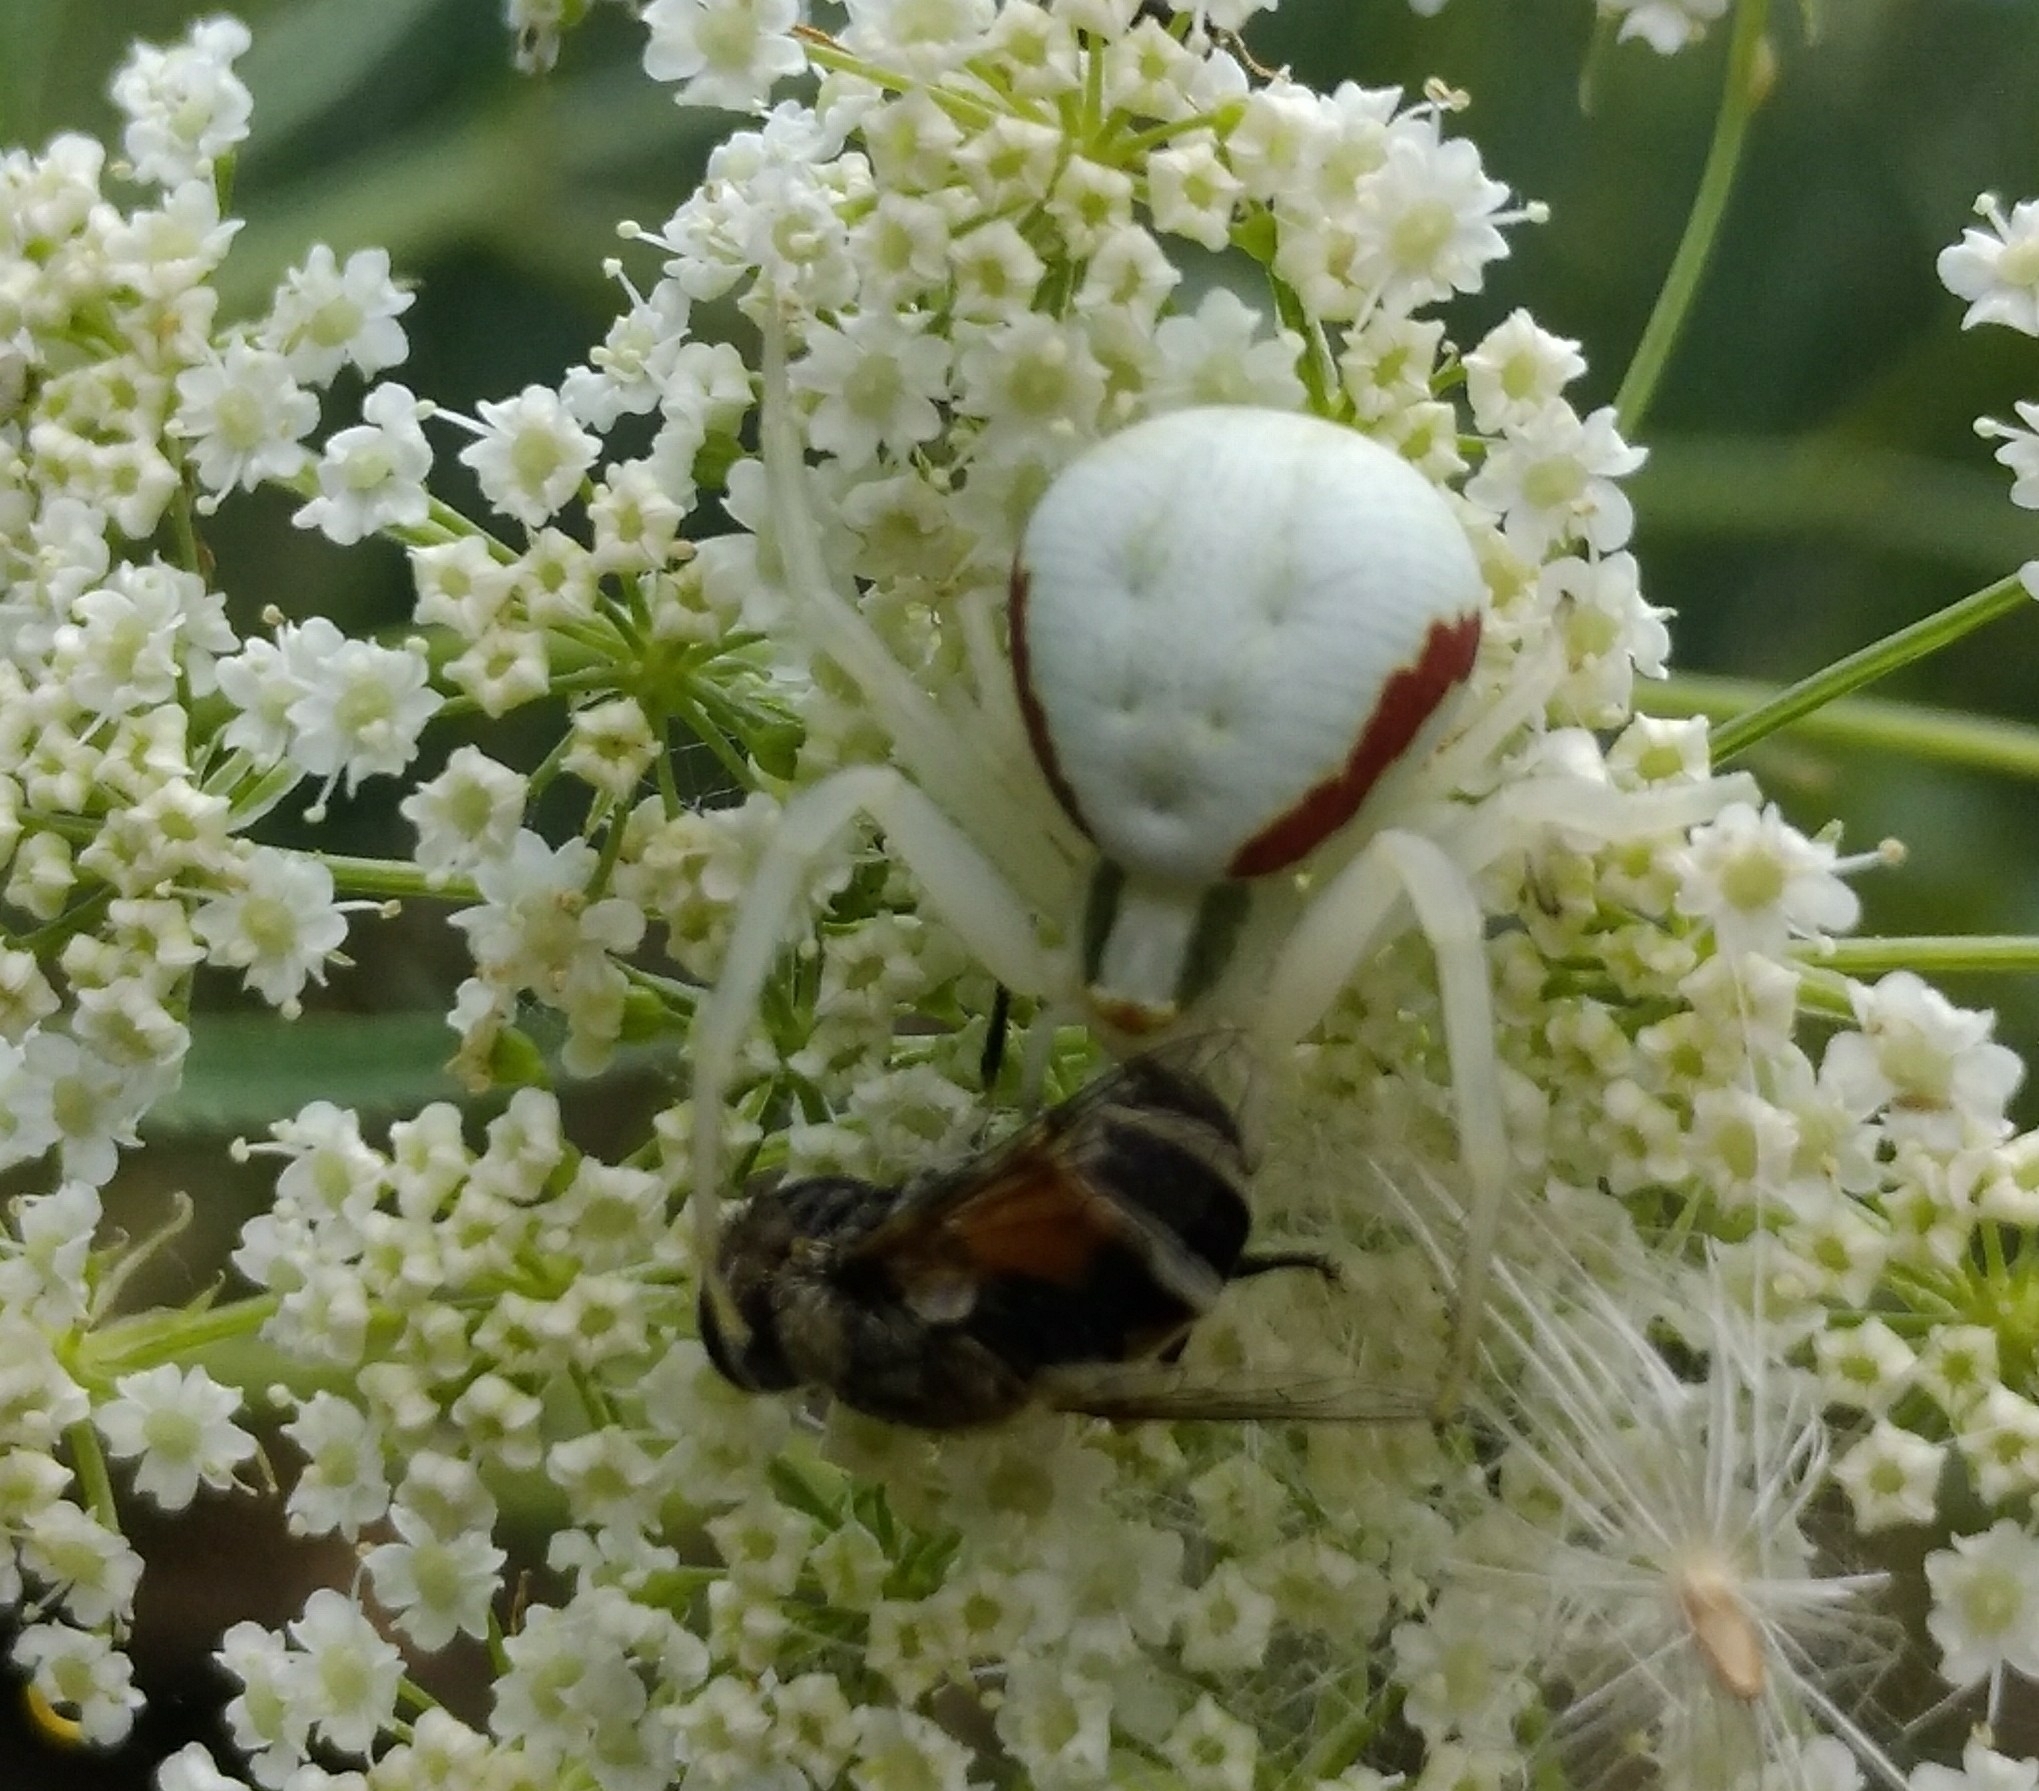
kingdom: Animalia
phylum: Arthropoda
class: Arachnida
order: Araneae
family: Thomisidae
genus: Misumena
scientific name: Misumena vatia
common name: Goldenrod crab spider
